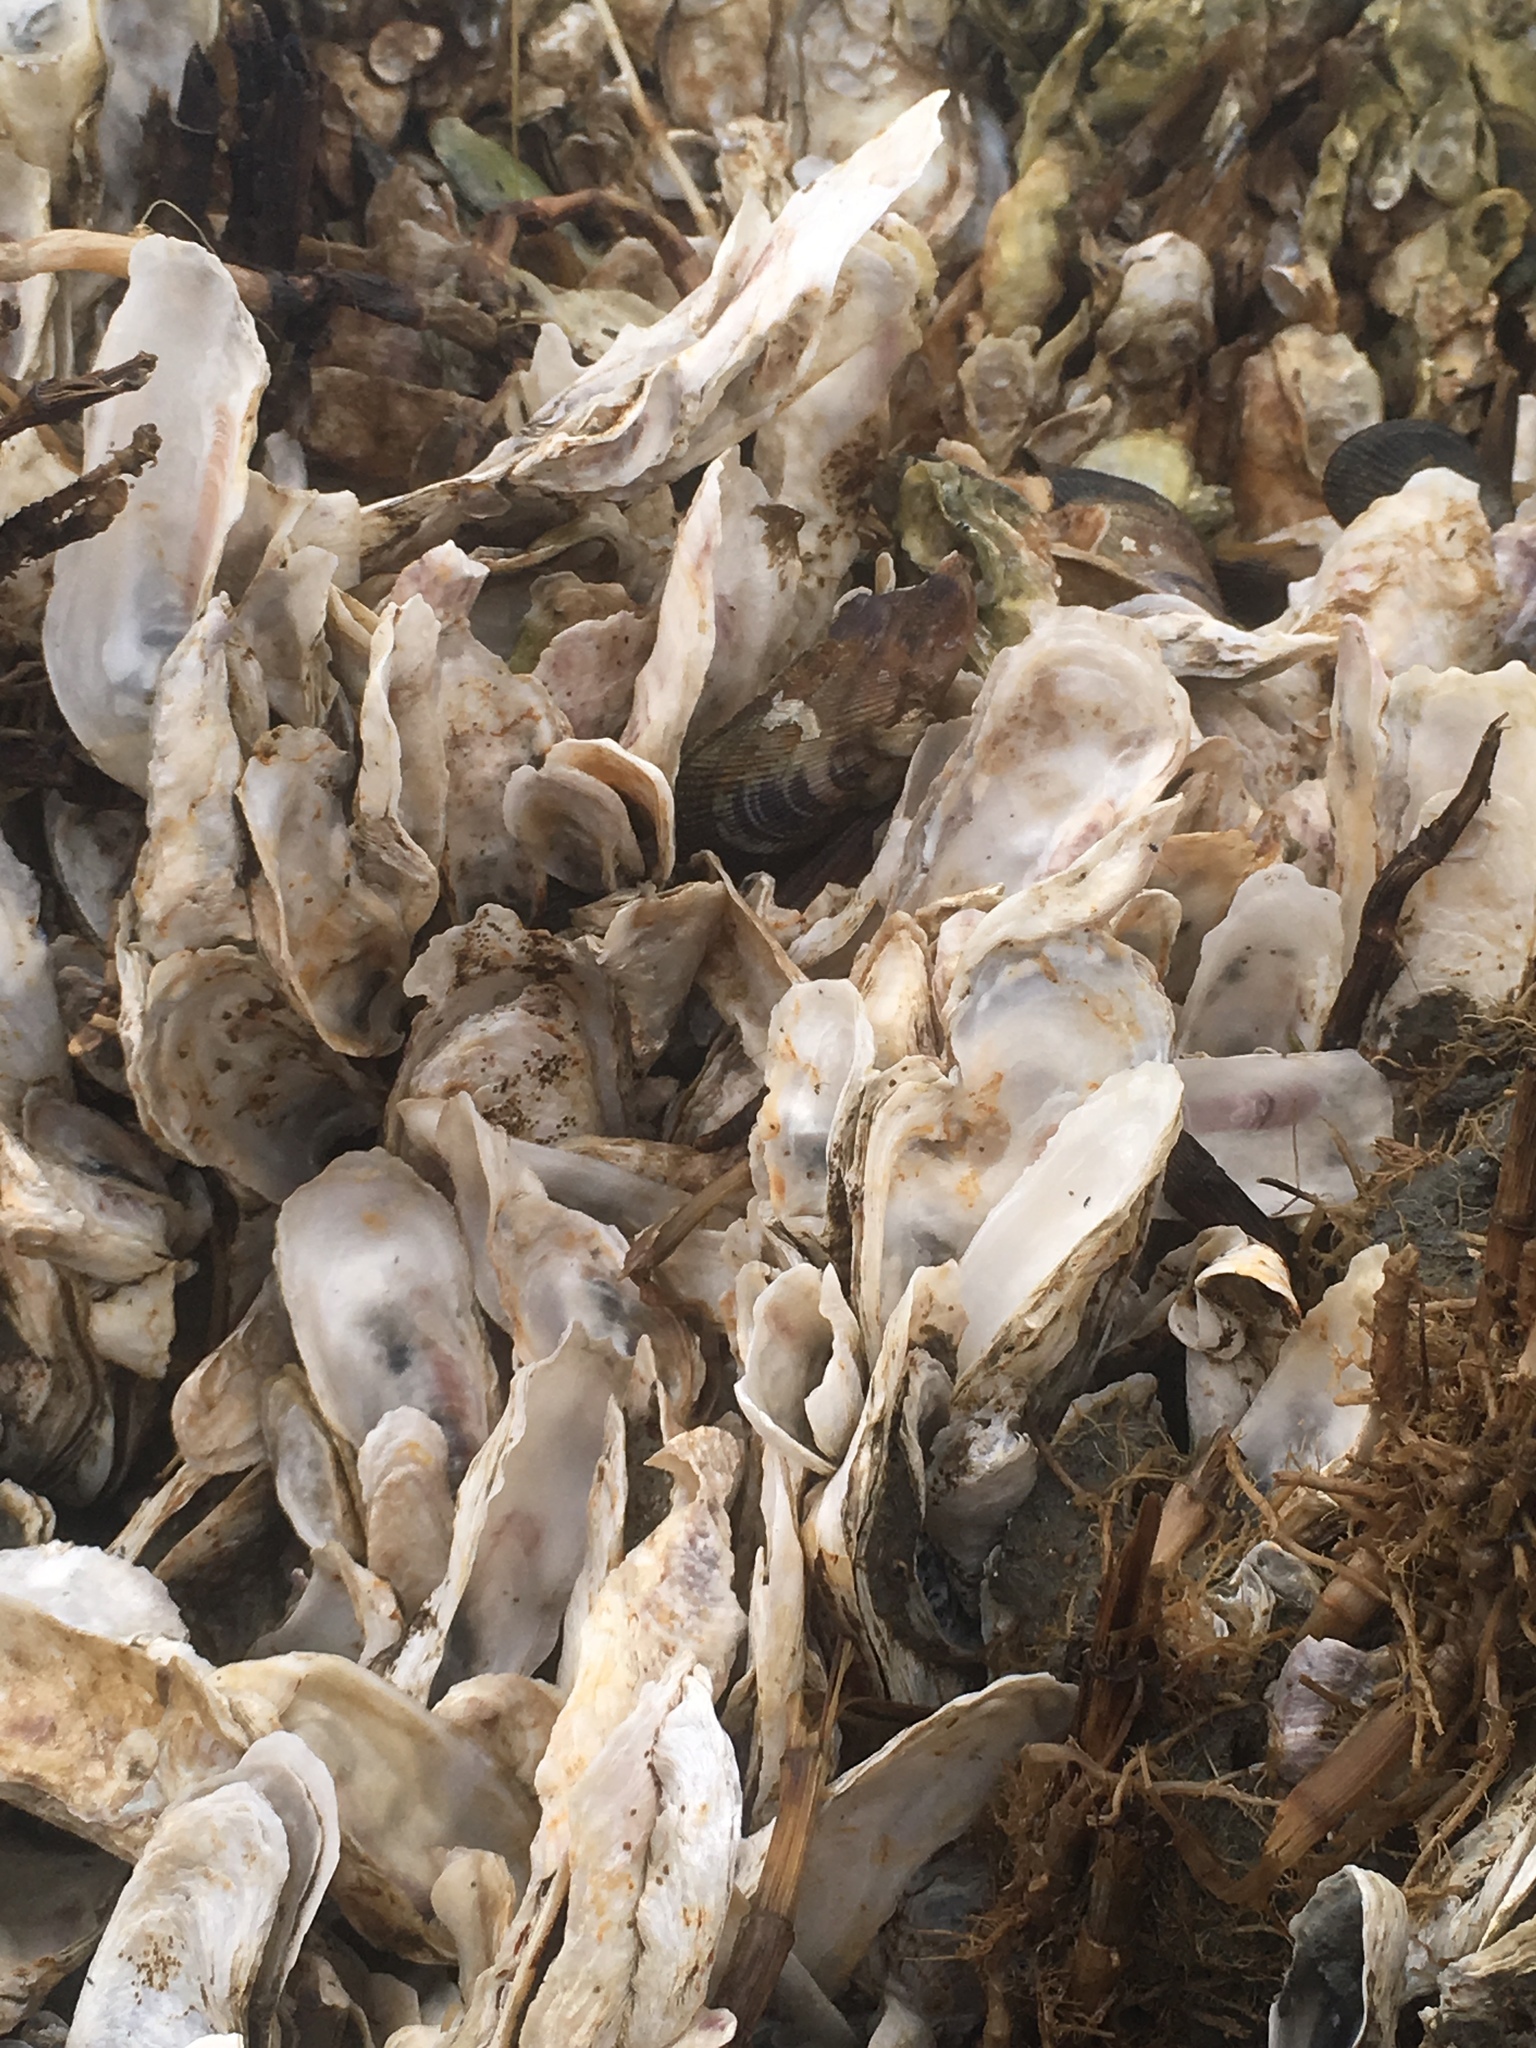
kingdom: Animalia
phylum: Mollusca
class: Bivalvia
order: Ostreida
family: Ostreidae
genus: Crassostrea
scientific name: Crassostrea virginica
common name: American oyster
